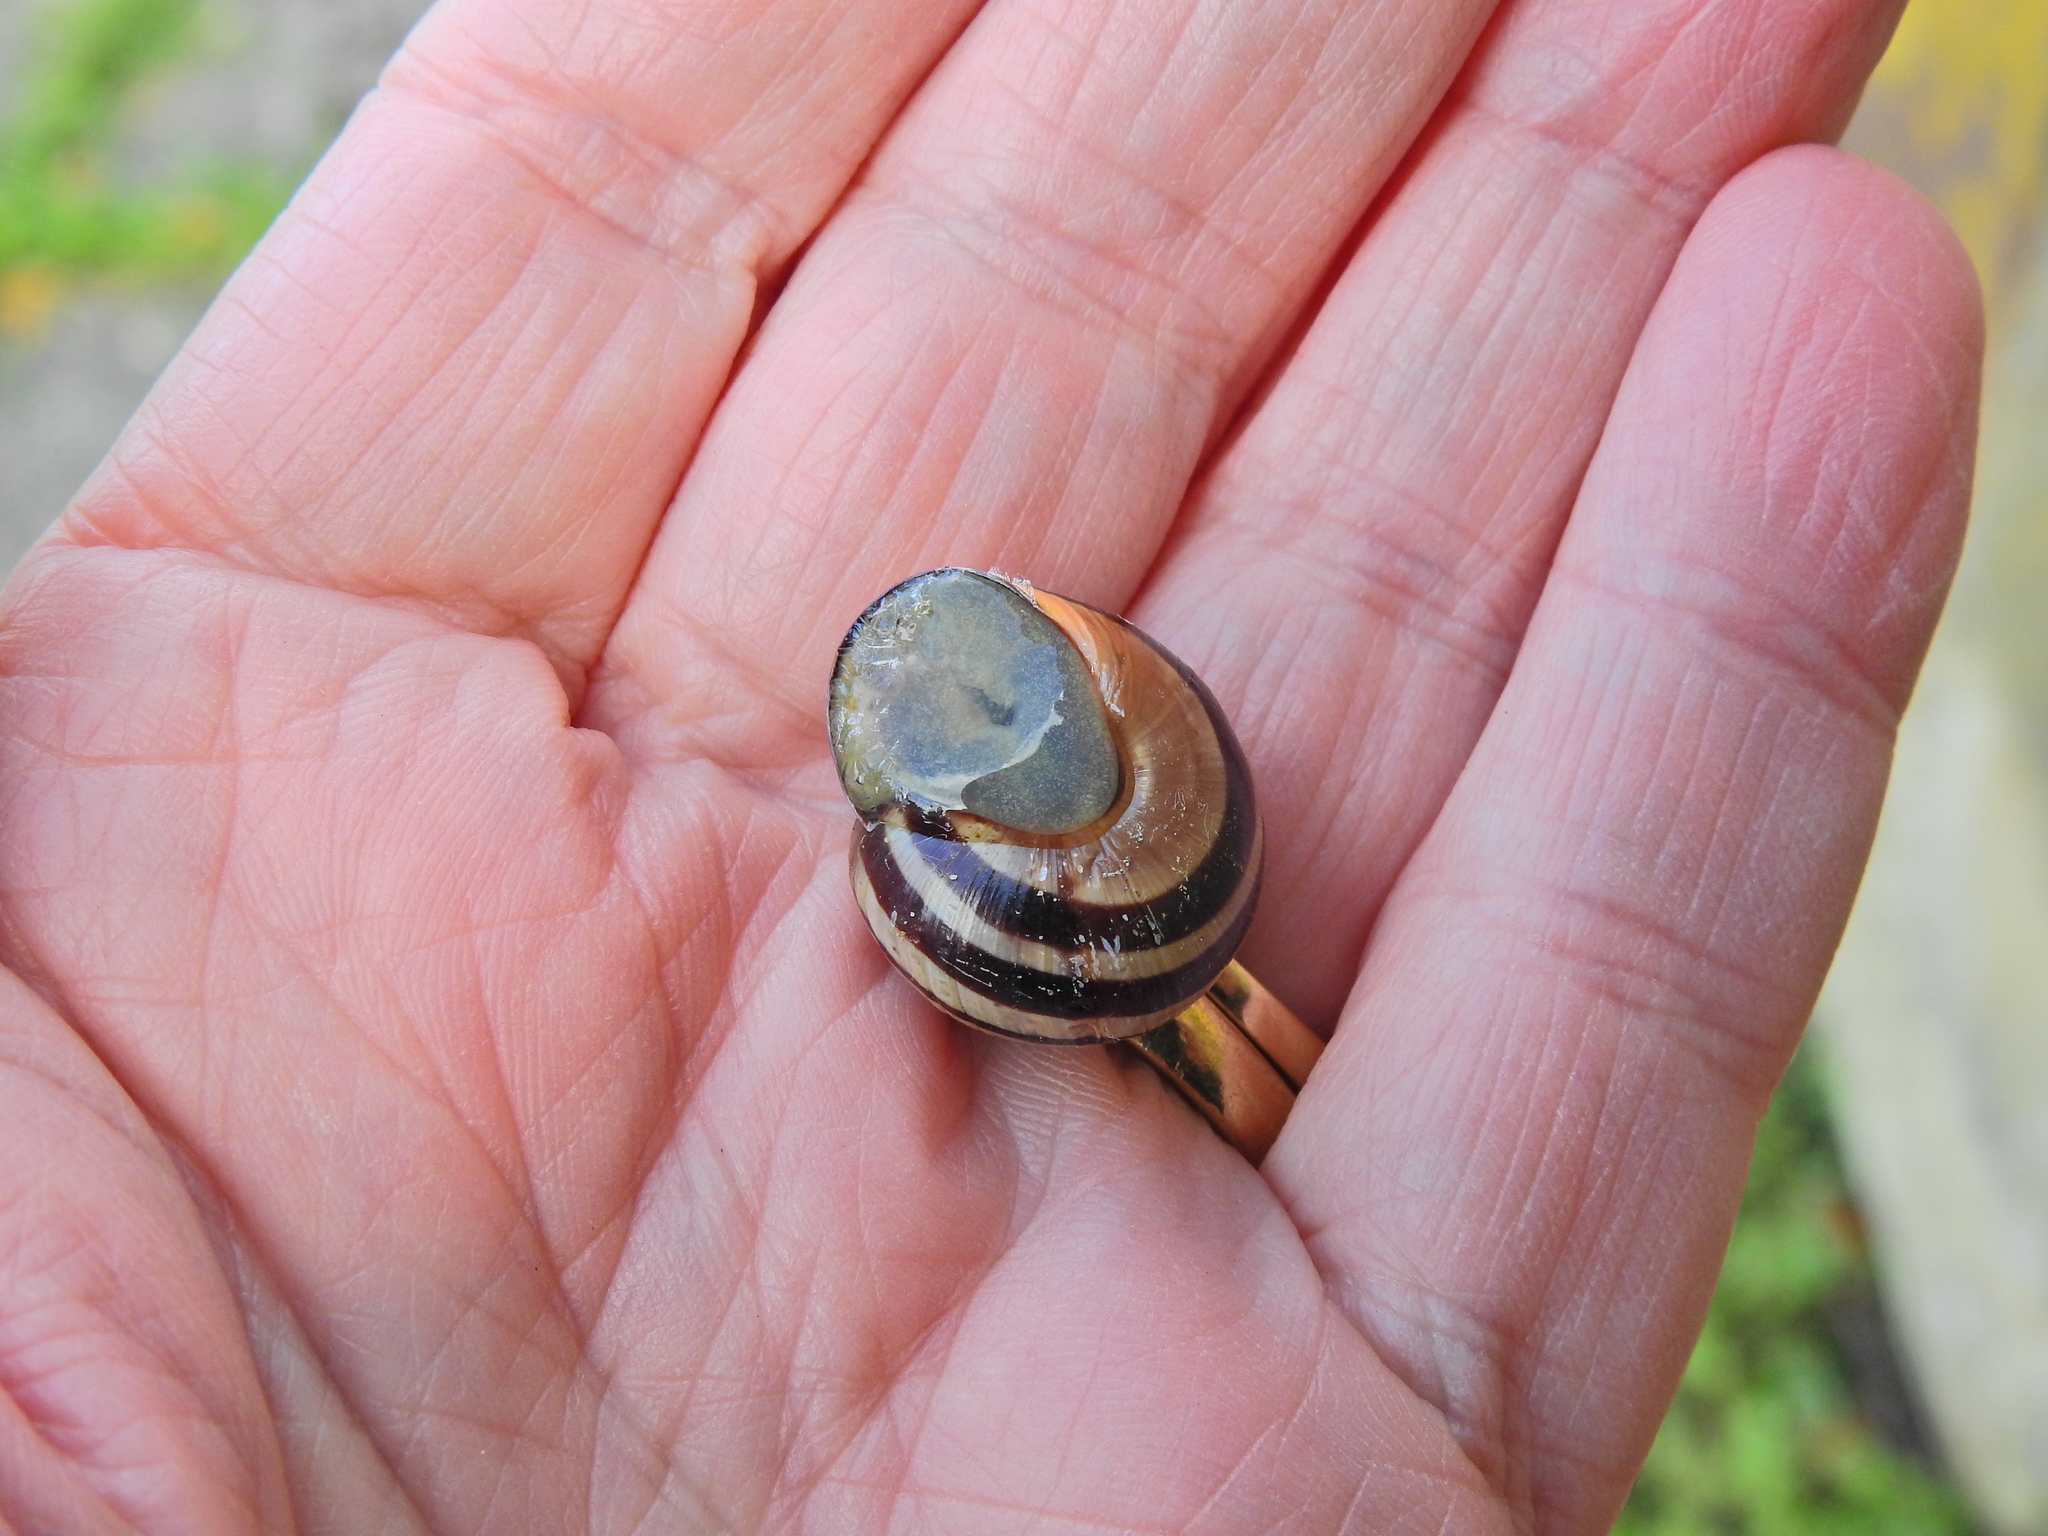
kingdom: Animalia
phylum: Mollusca
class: Gastropoda
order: Stylommatophora
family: Helicidae
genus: Cepaea
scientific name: Cepaea nemoralis
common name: Grovesnail
